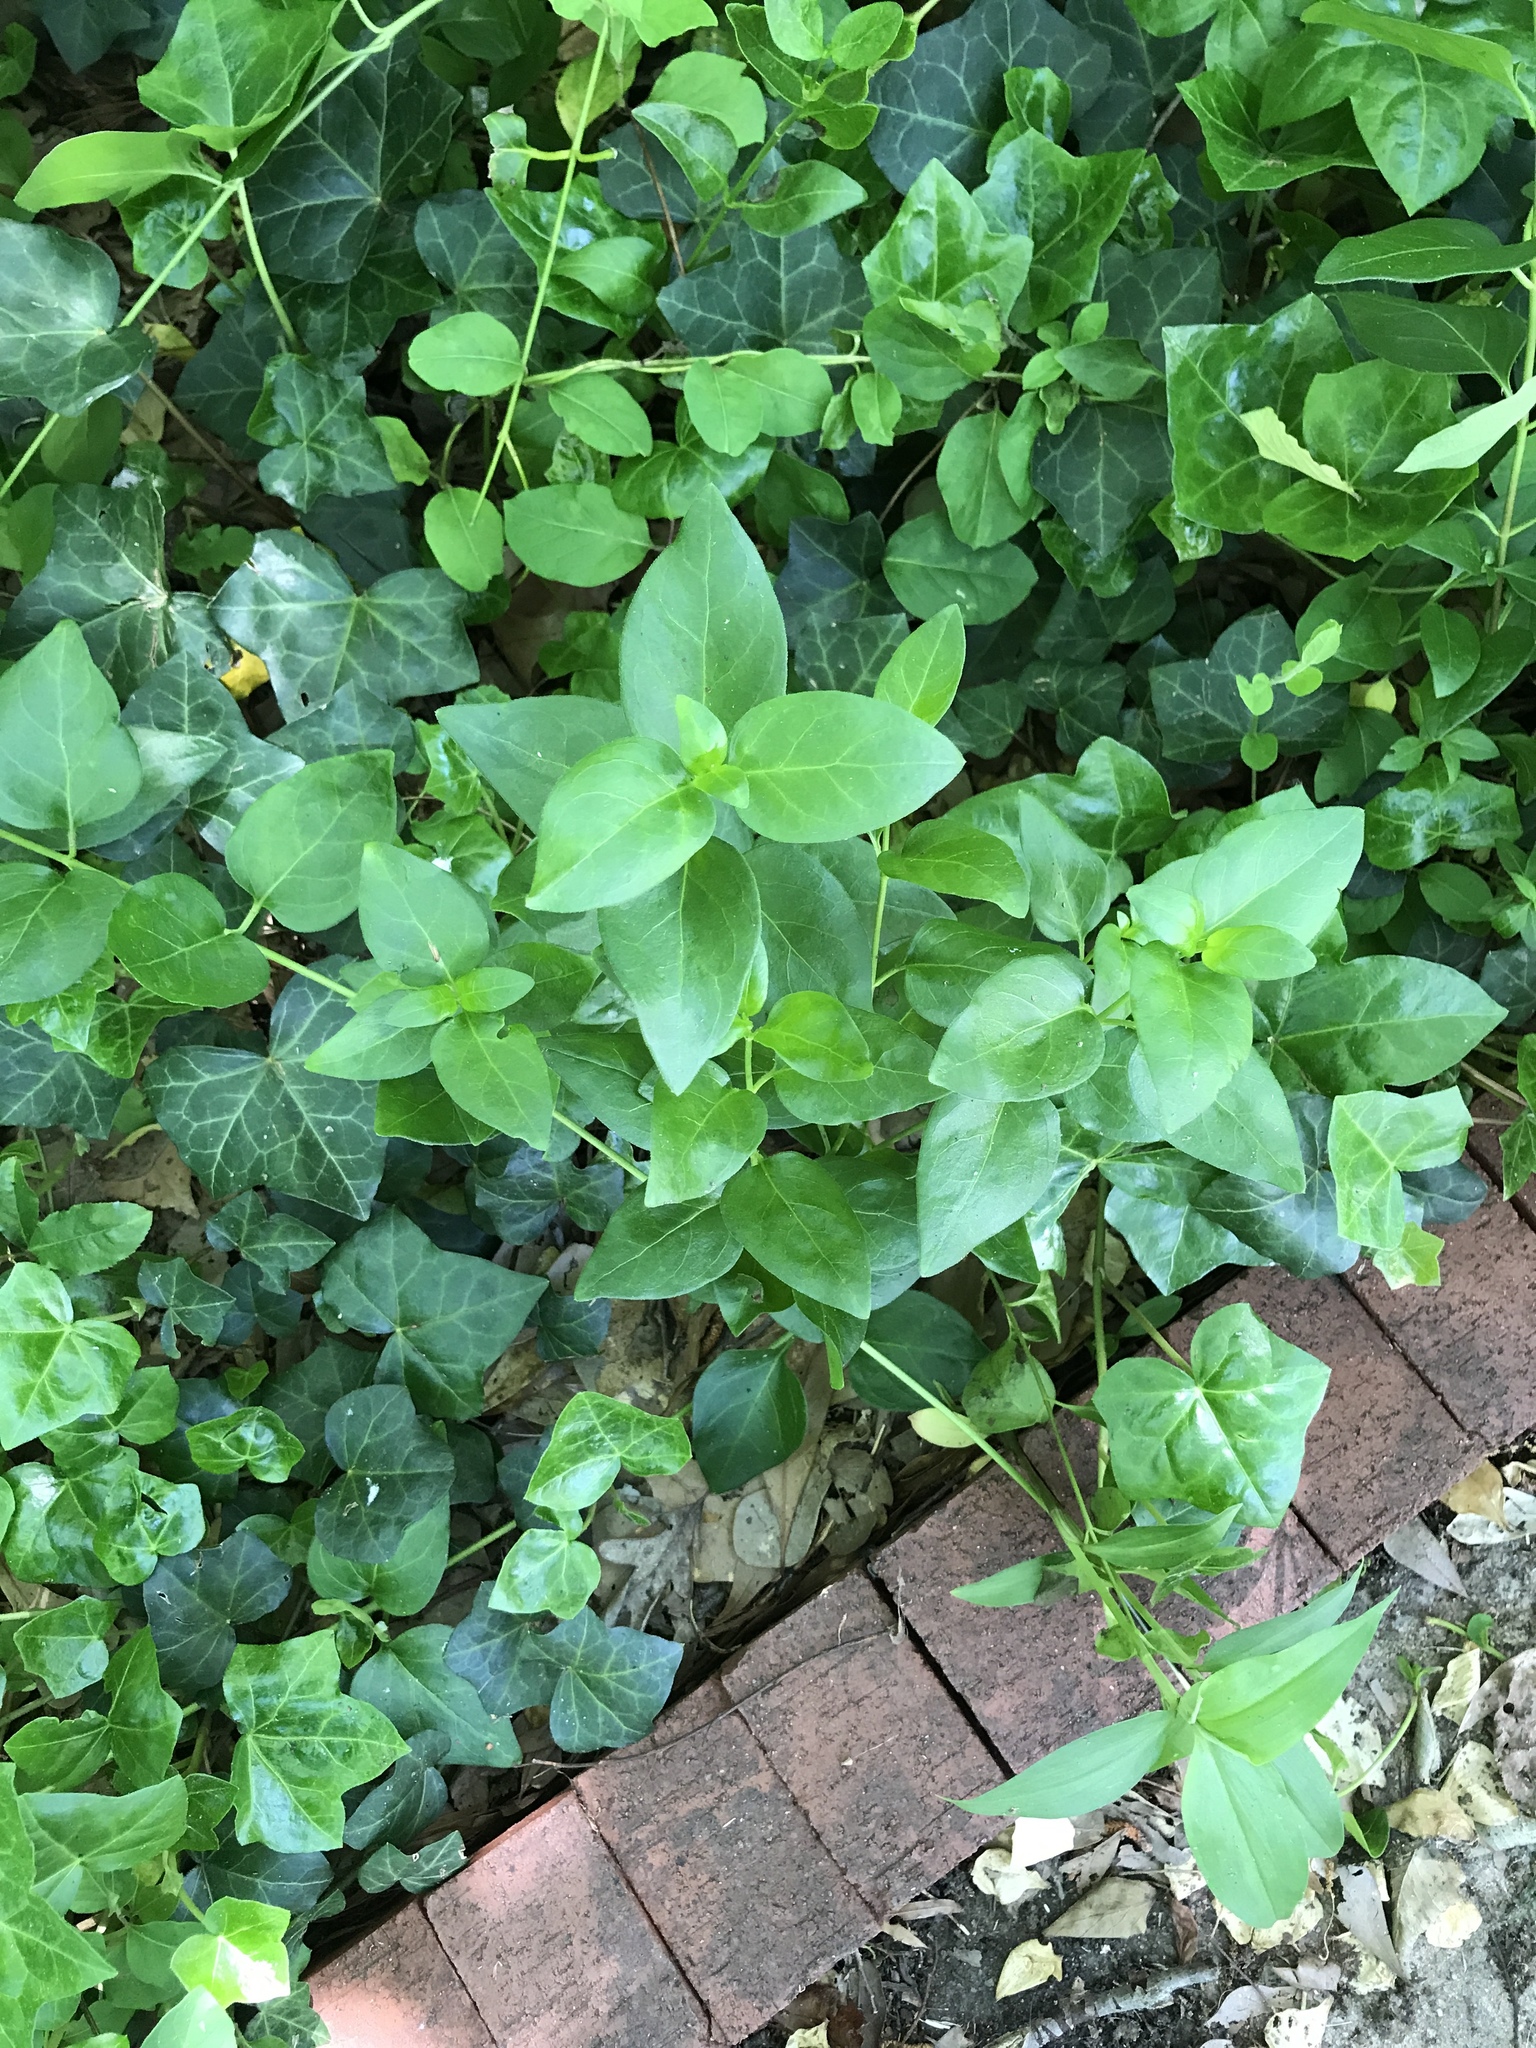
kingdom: Plantae
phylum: Tracheophyta
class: Magnoliopsida
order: Gentianales
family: Apocynaceae
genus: Vinca
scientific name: Vinca major
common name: Greater periwinkle
